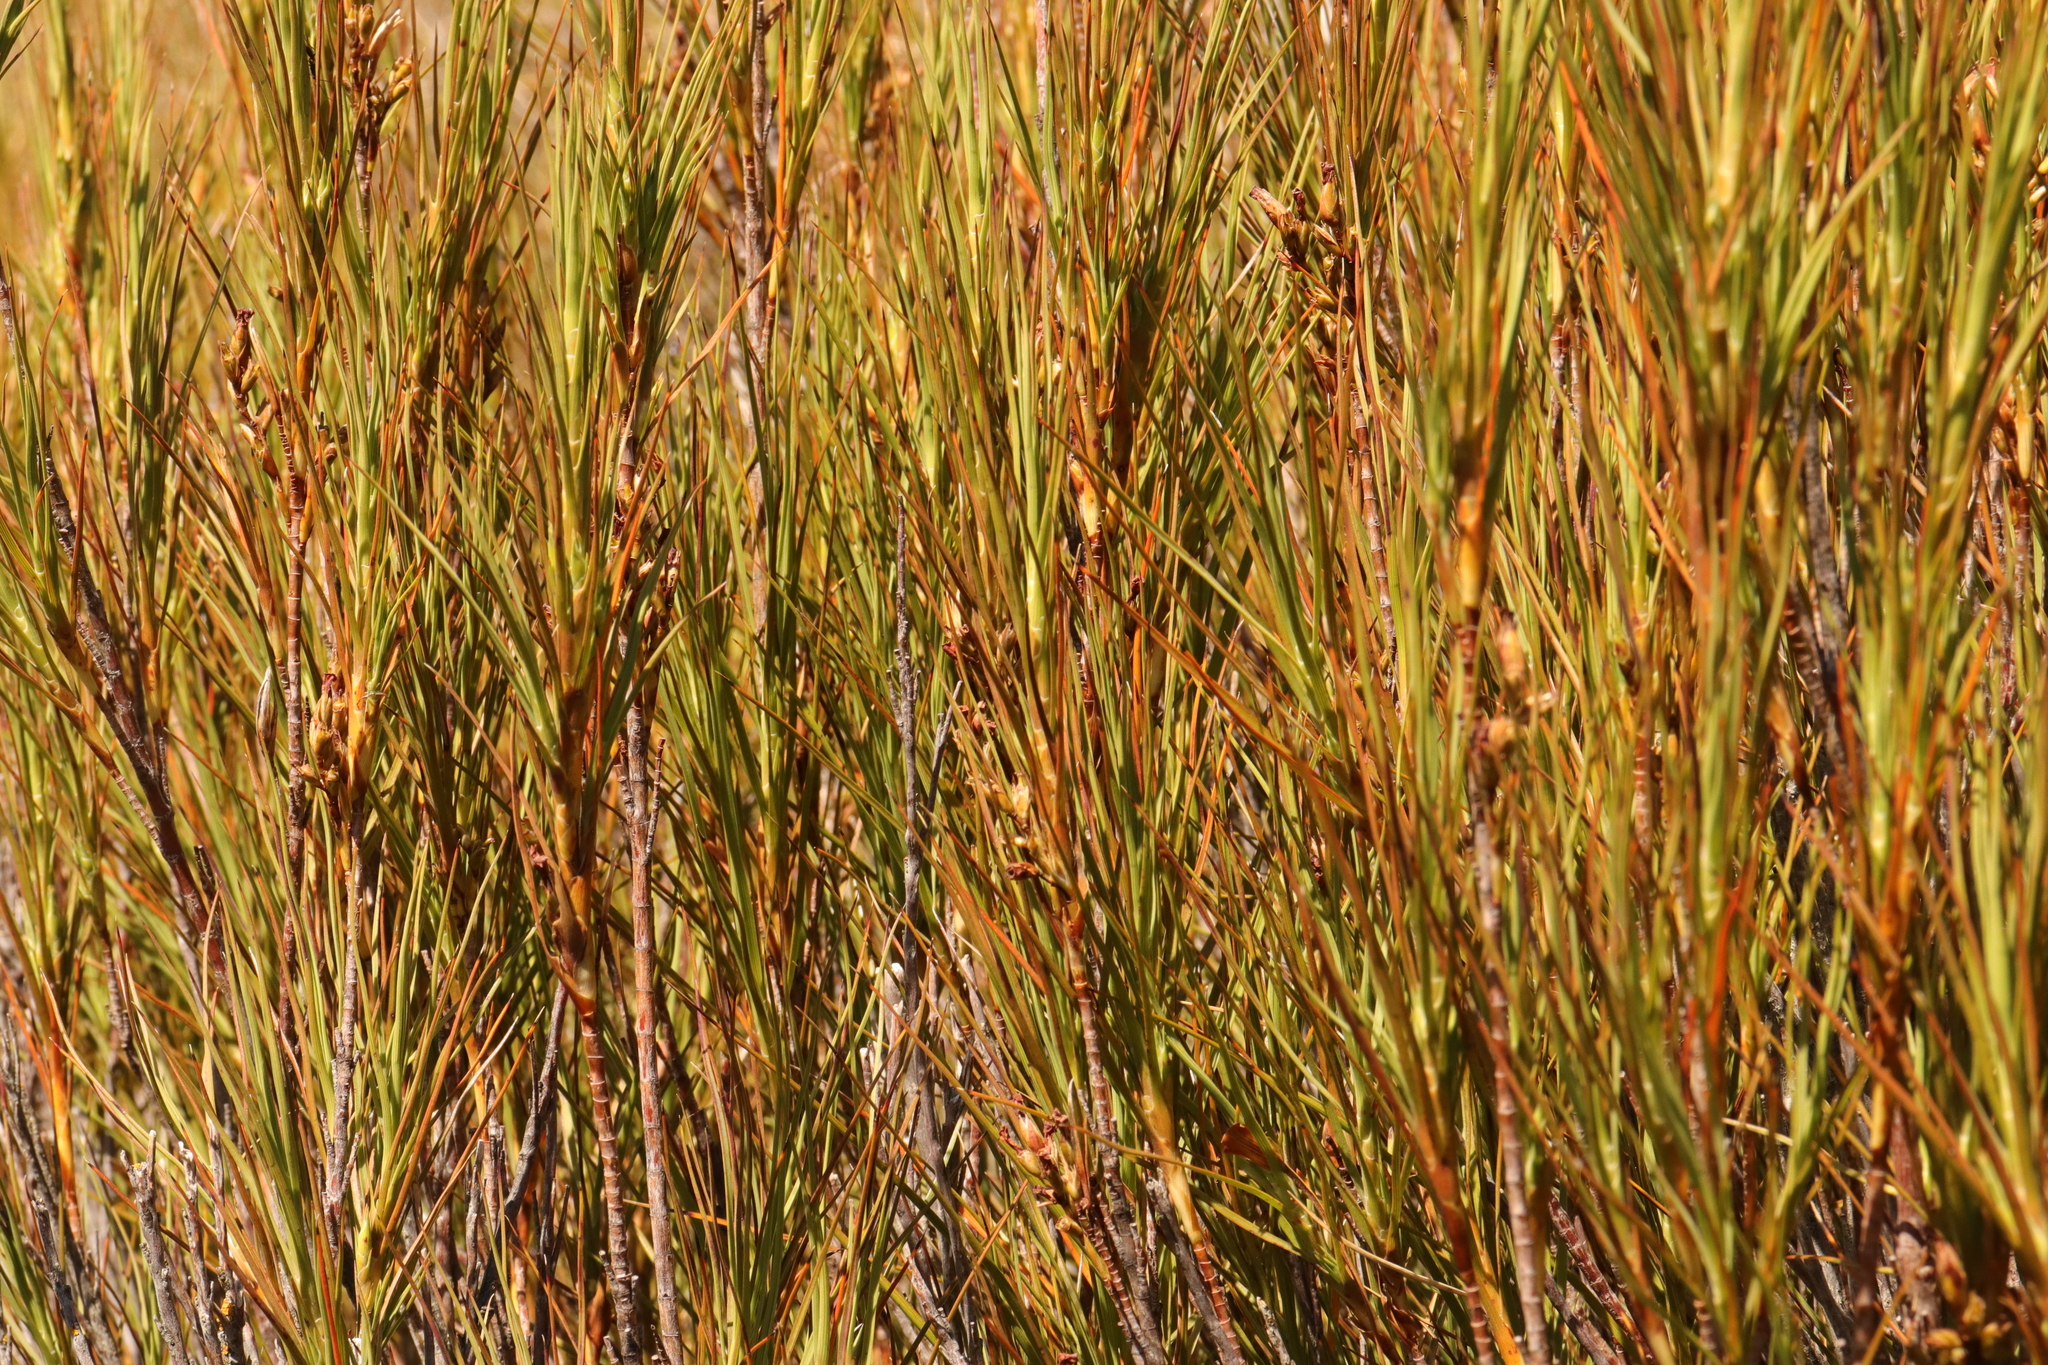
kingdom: Plantae
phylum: Tracheophyta
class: Magnoliopsida
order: Ericales
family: Ericaceae
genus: Dracophyllum
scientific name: Dracophyllum longifolium
